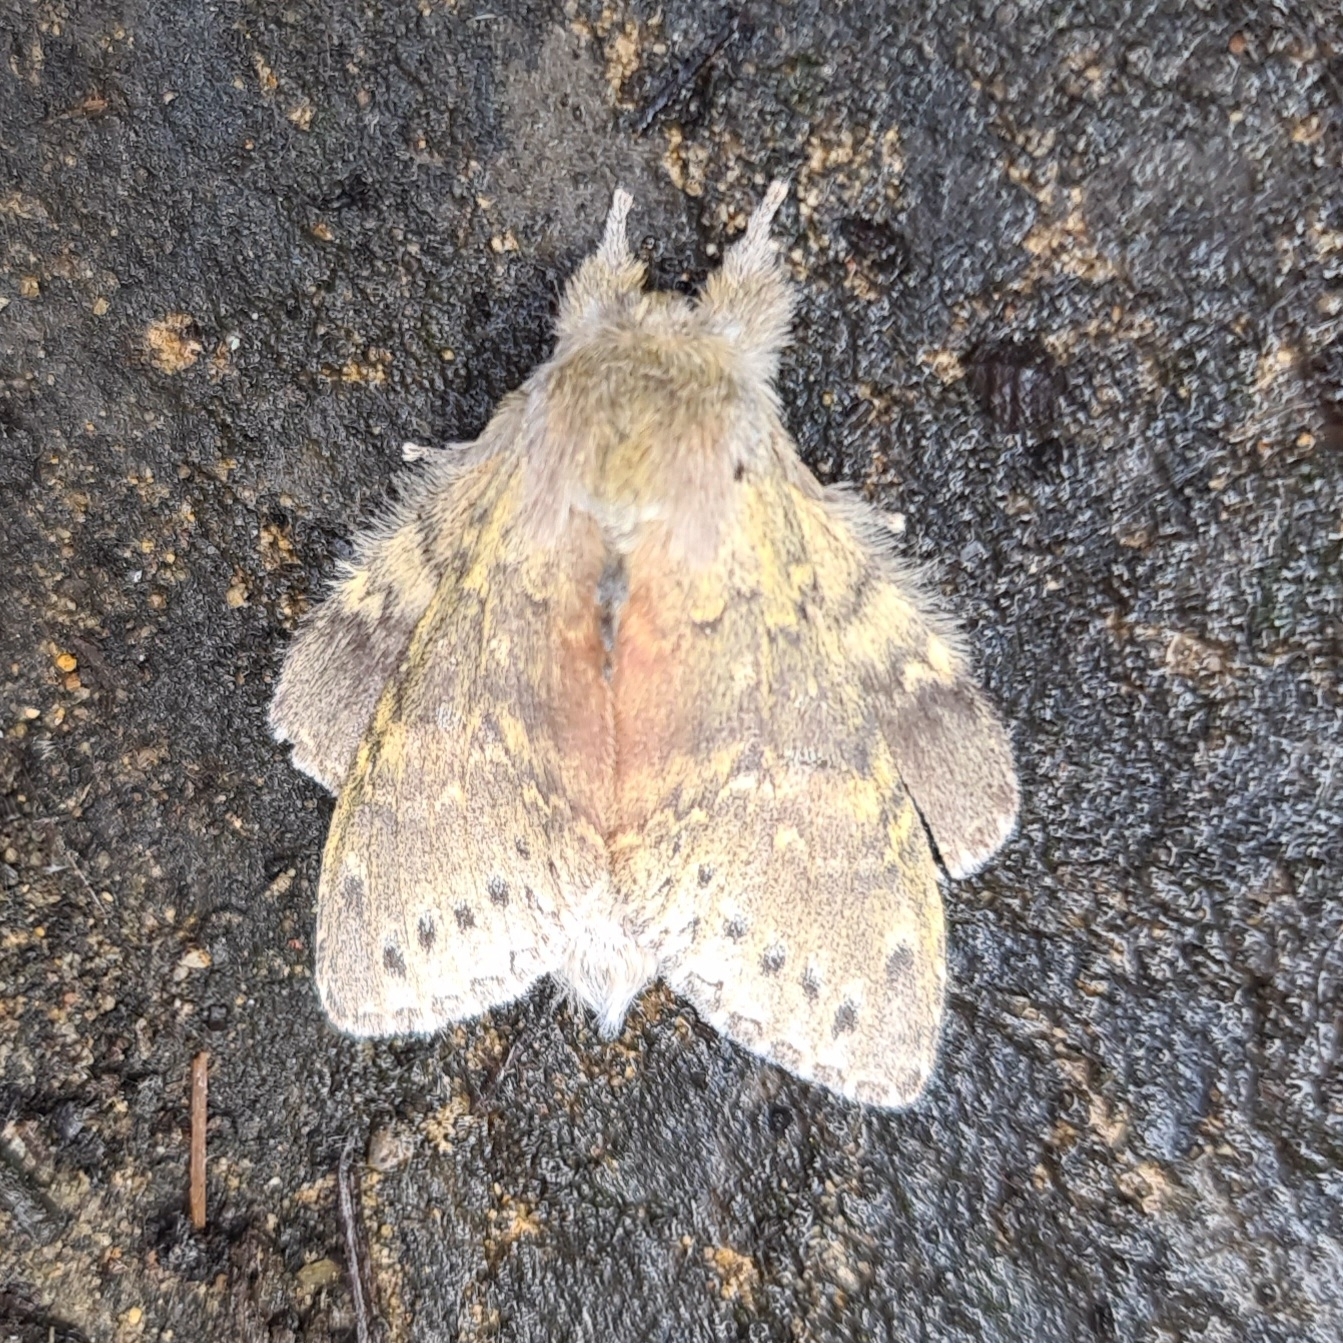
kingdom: Animalia
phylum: Arthropoda
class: Insecta
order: Lepidoptera
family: Notodontidae
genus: Stauropus
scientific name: Stauropus fagi
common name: Lobster moth
